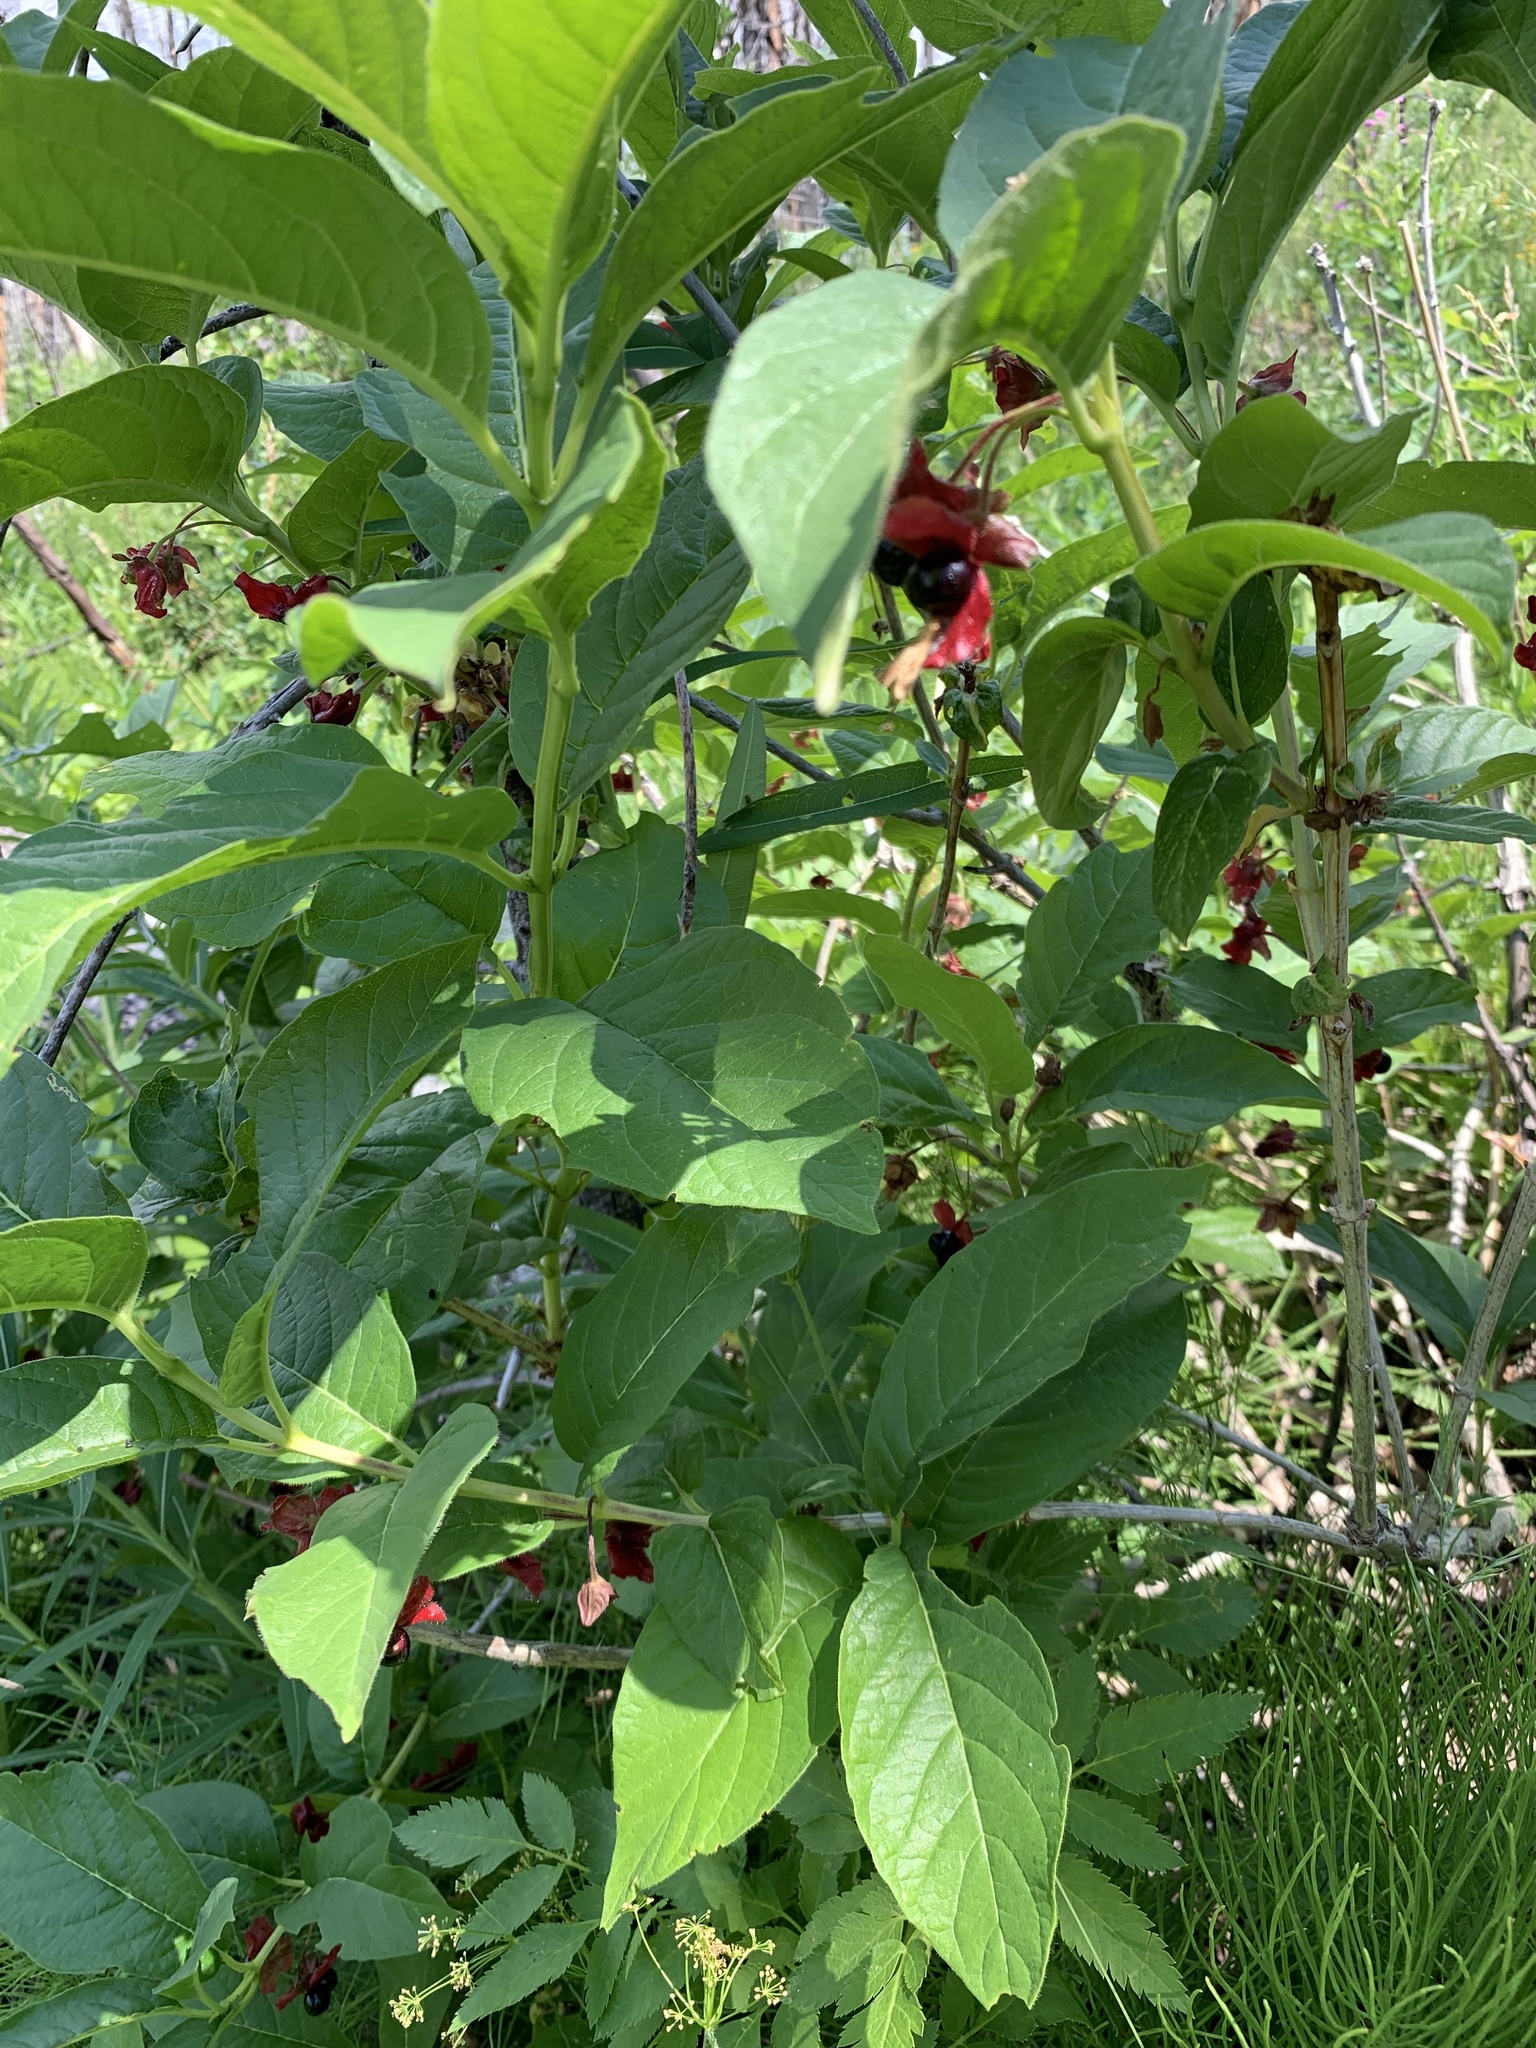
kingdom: Plantae
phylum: Tracheophyta
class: Magnoliopsida
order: Dipsacales
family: Caprifoliaceae
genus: Lonicera
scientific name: Lonicera involucrata
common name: Californian honeysuckle
